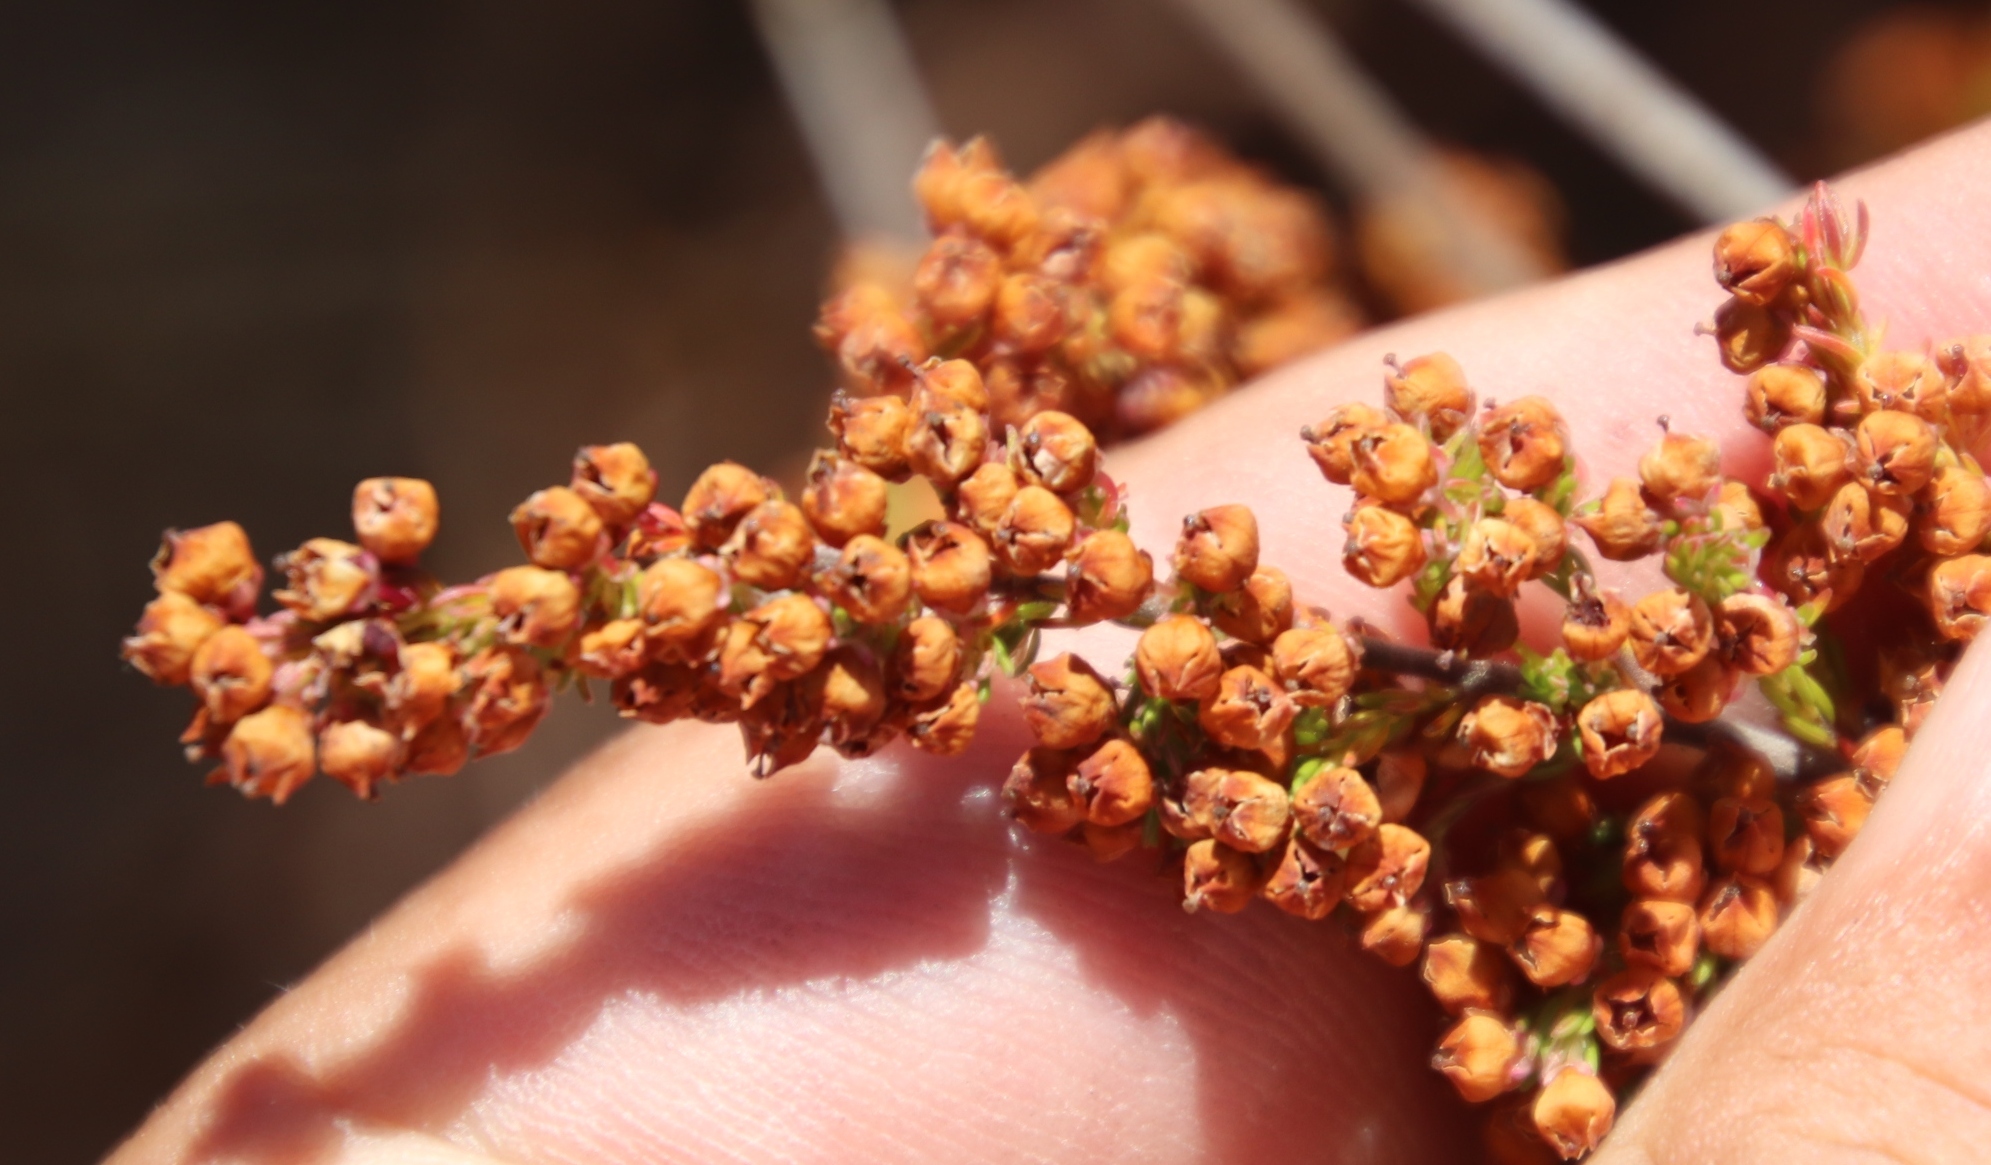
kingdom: Plantae
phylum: Tracheophyta
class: Magnoliopsida
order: Ericales
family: Ericaceae
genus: Erica
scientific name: Erica mauritanica
